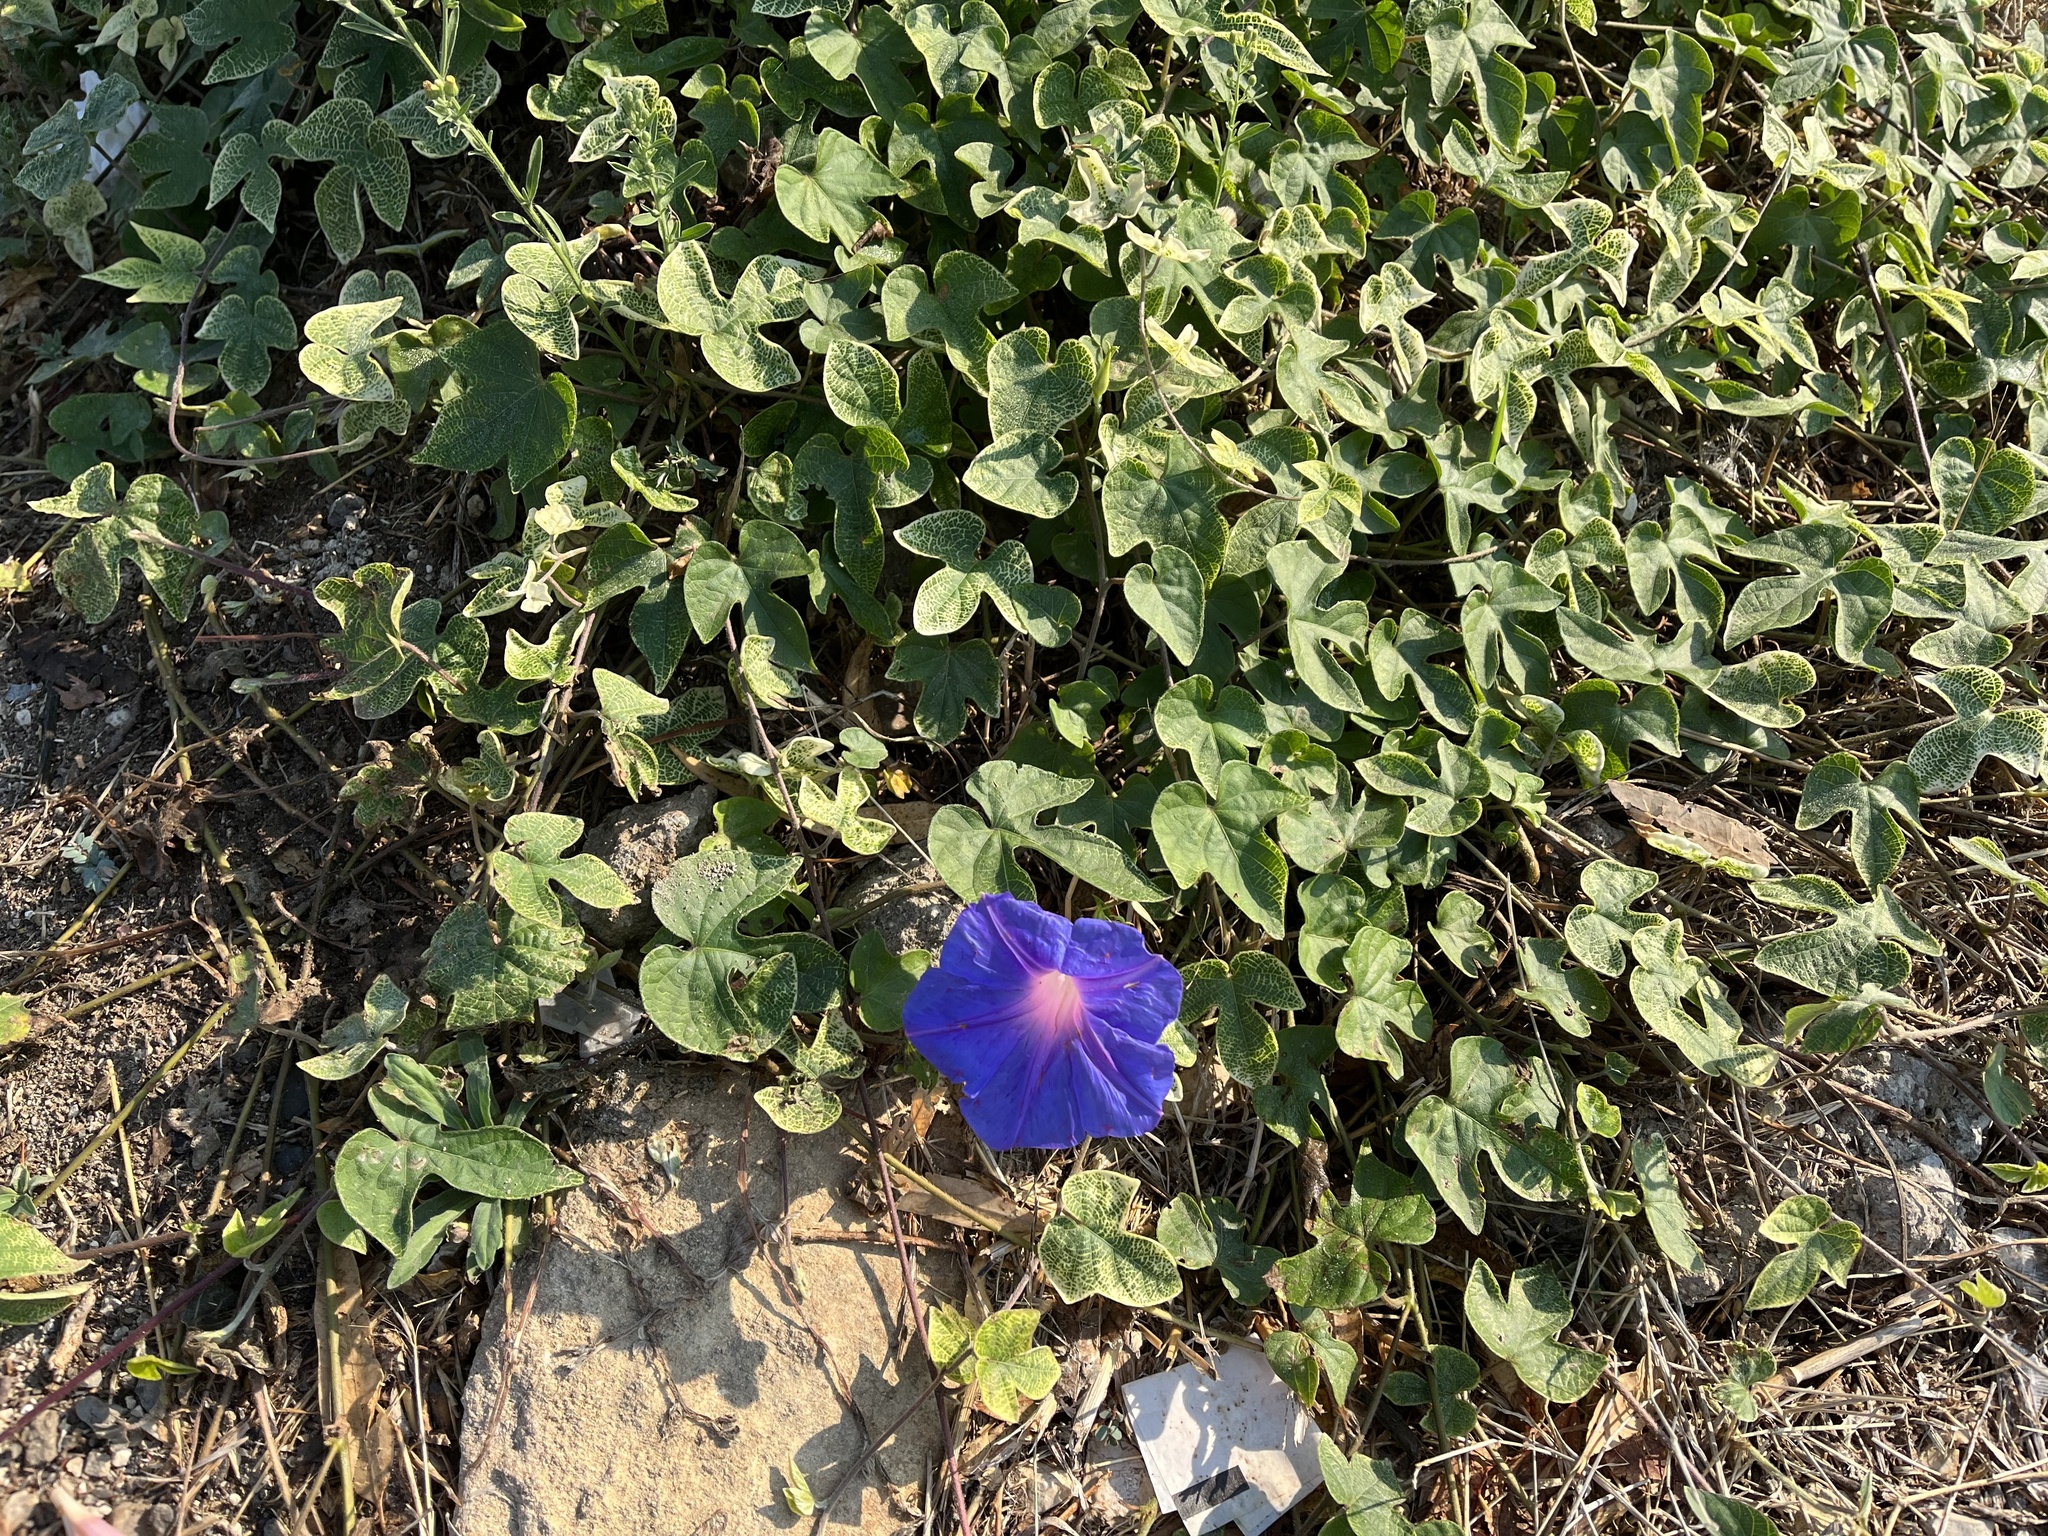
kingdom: Plantae
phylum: Tracheophyta
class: Magnoliopsida
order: Solanales
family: Convolvulaceae
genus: Ipomoea
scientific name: Ipomoea indica
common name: Blue dawnflower
